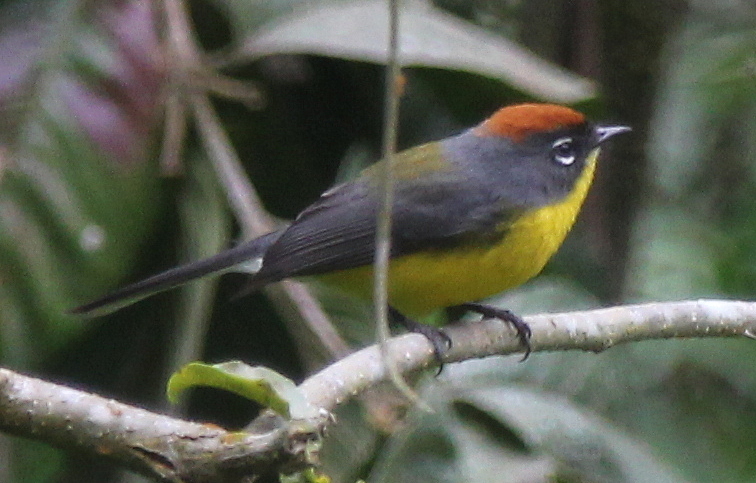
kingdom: Animalia
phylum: Chordata
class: Aves
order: Passeriformes
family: Parulidae
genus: Myioborus
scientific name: Myioborus brunniceps
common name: Brown-capped whitestart
